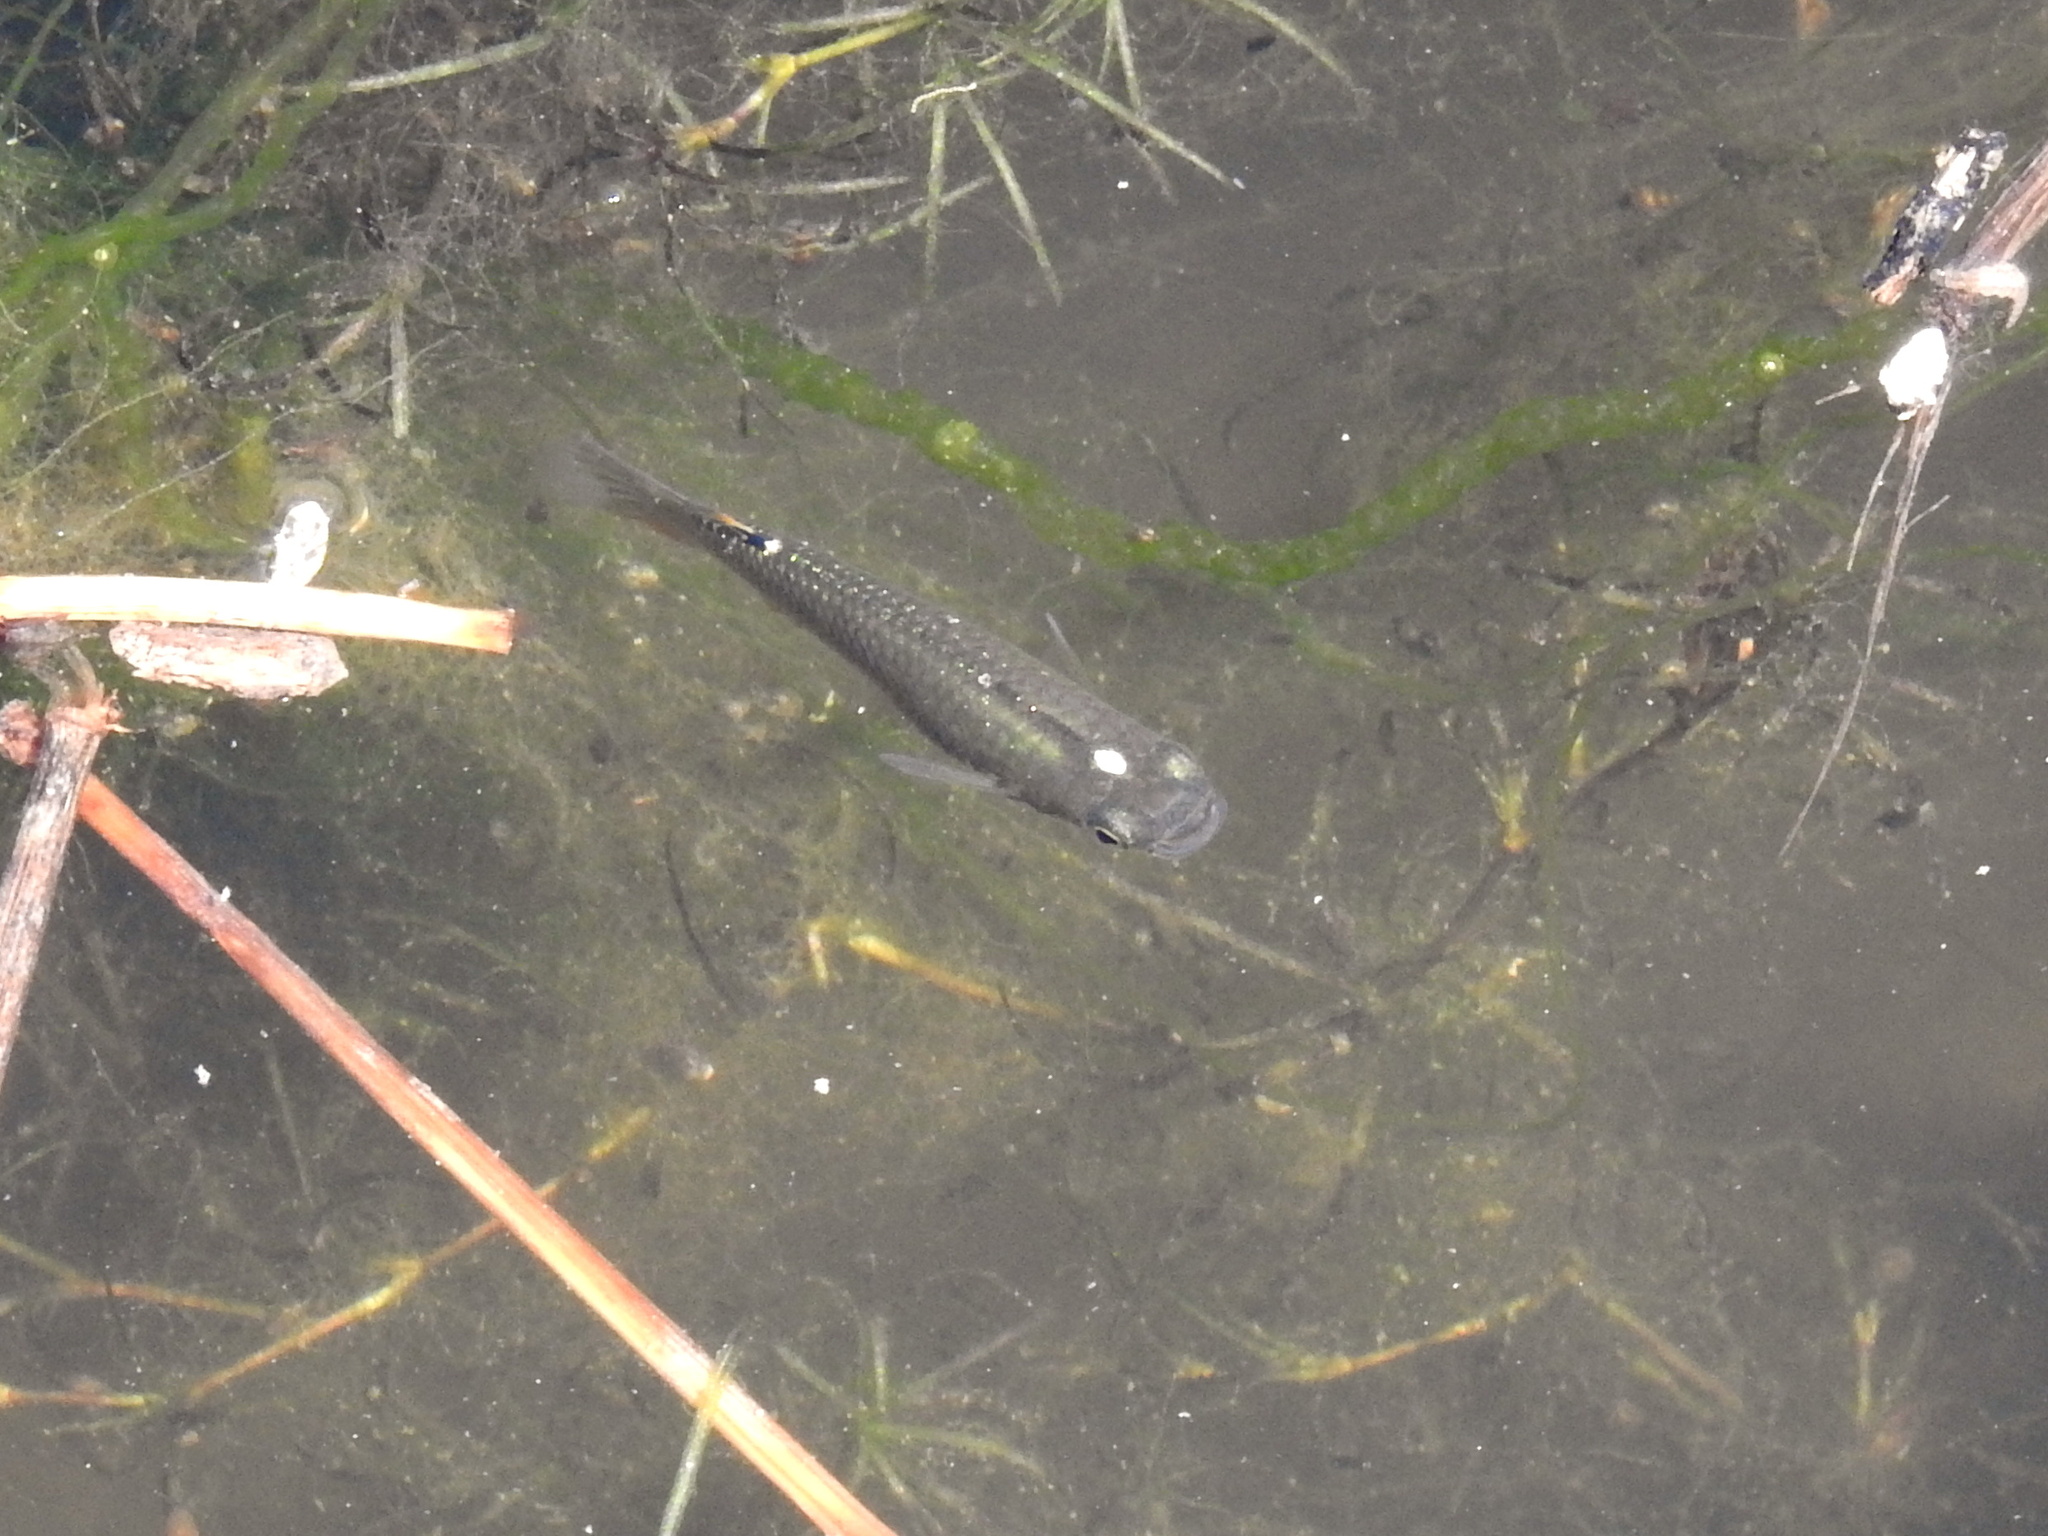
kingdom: Animalia
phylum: Chordata
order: Cyprinodontiformes
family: Aplocheilidae
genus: Aplocheilus
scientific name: Aplocheilus panchax
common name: Blue panchax
